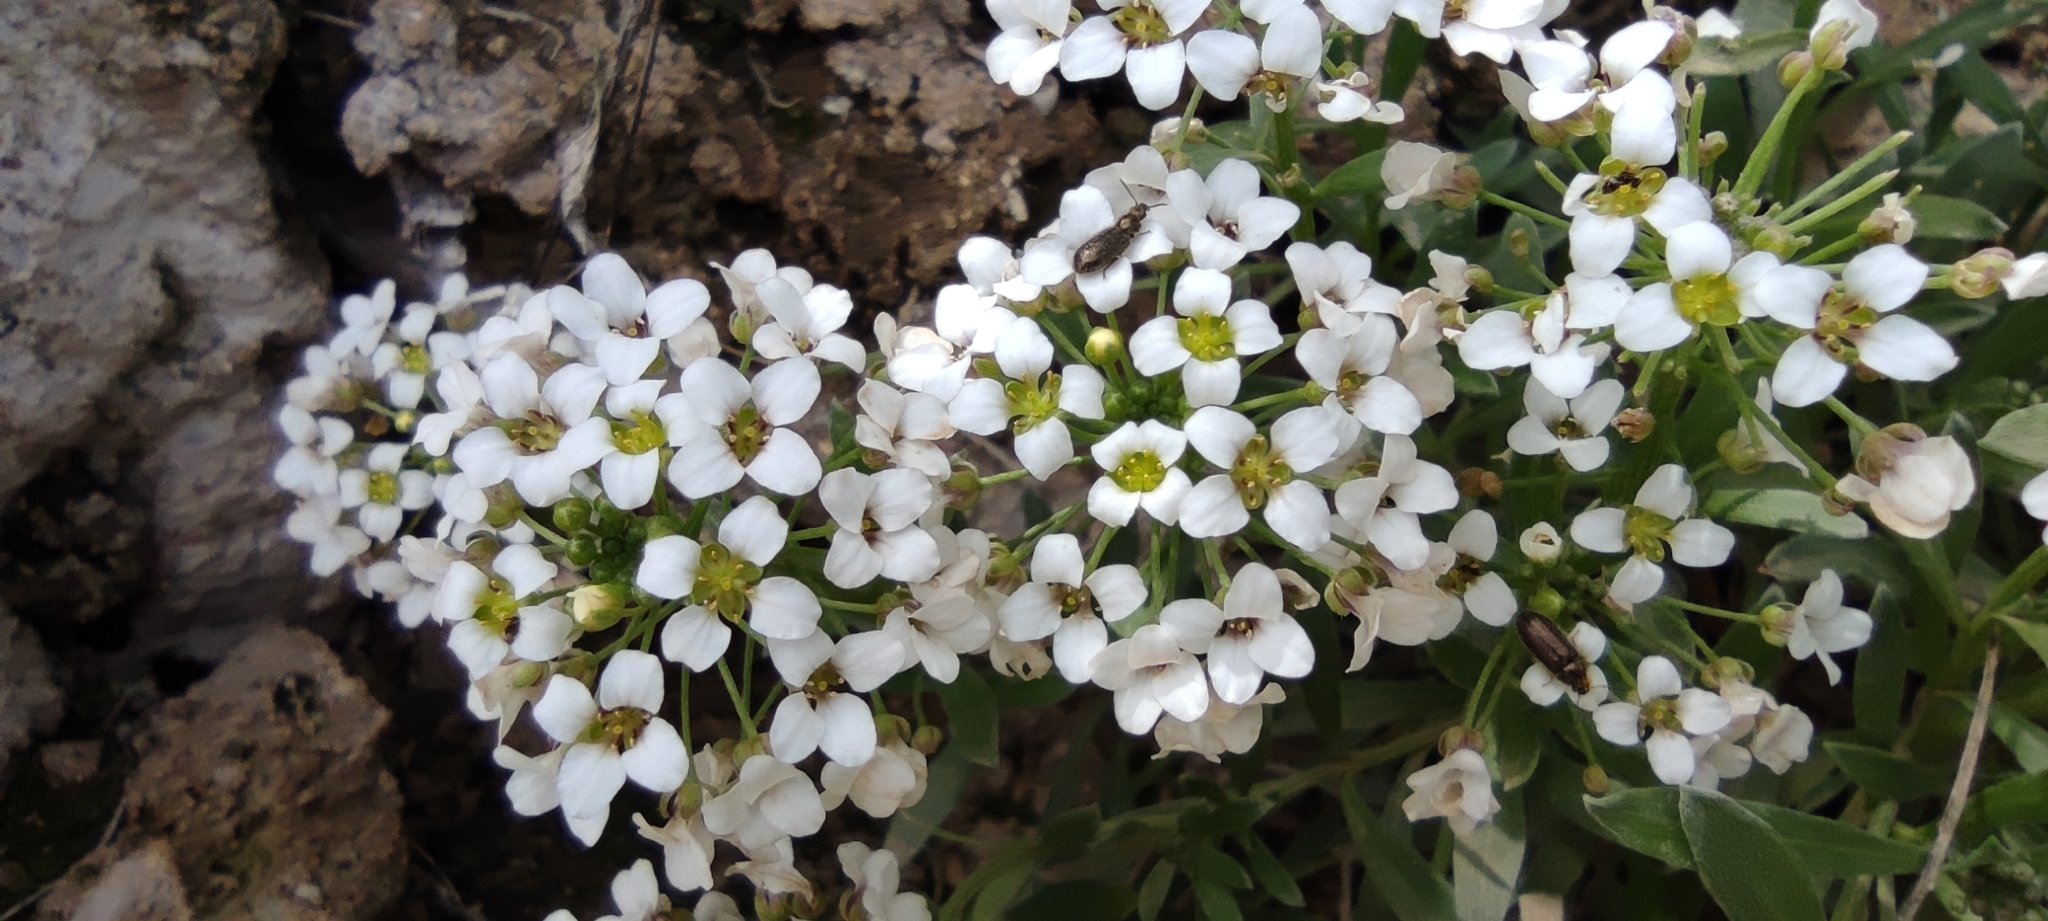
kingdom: Plantae
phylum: Tracheophyta
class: Magnoliopsida
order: Brassicales
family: Brassicaceae
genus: Lobularia
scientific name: Lobularia maritima
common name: Sweet alison
